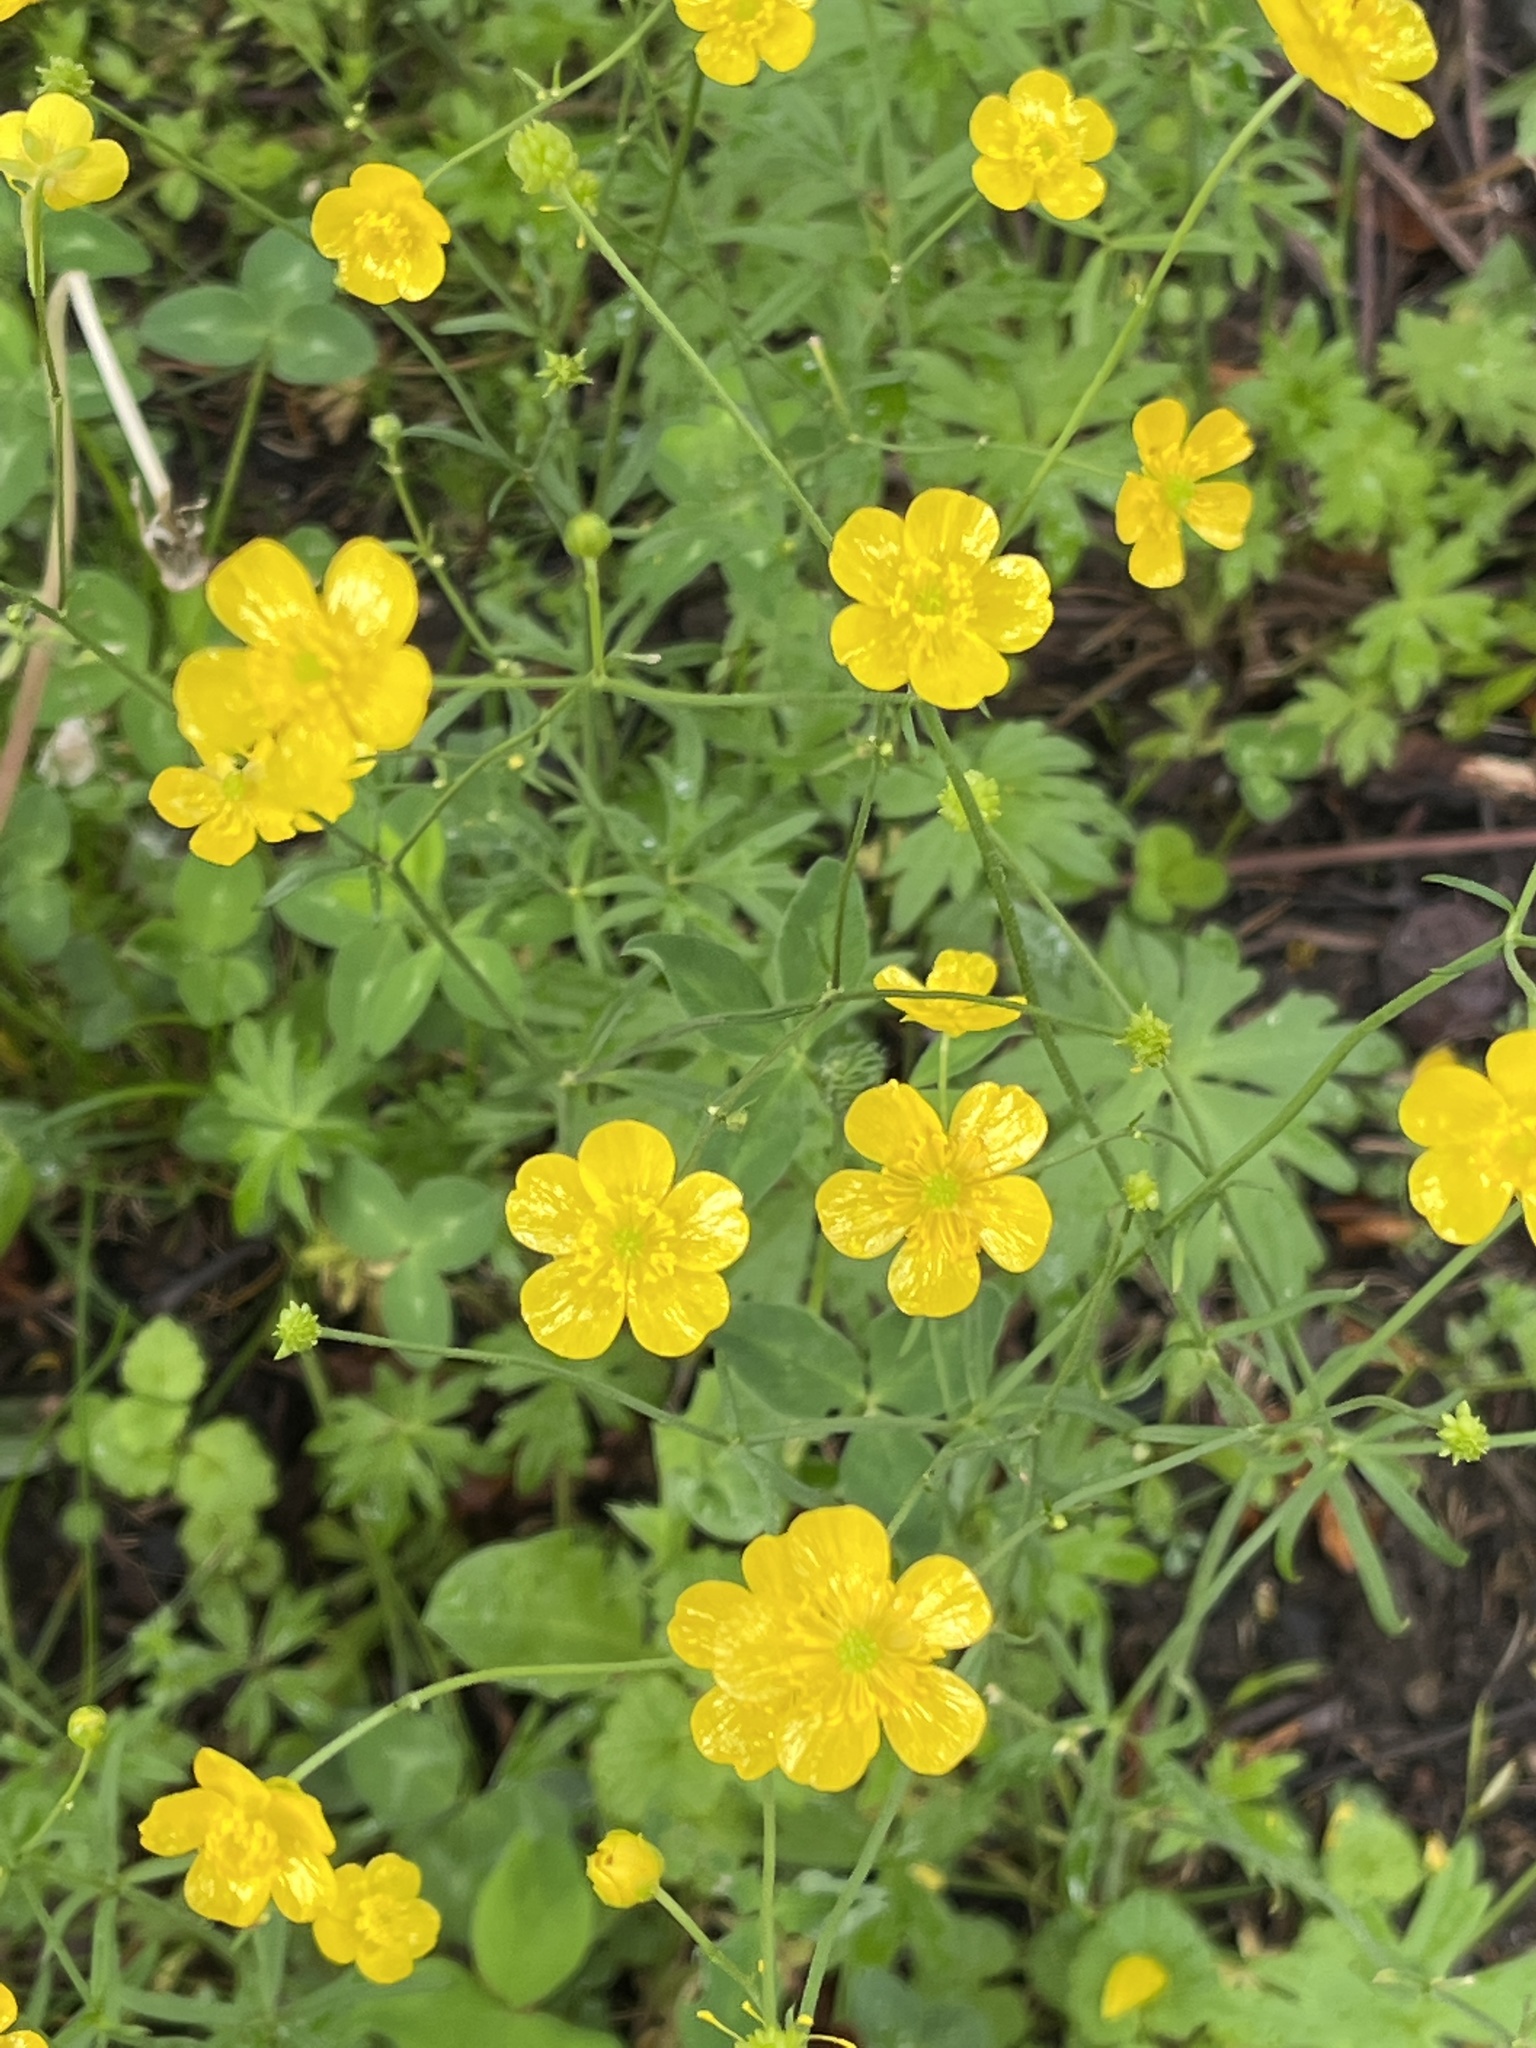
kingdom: Plantae
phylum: Tracheophyta
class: Magnoliopsida
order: Ranunculales
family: Ranunculaceae
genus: Ranunculus
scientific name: Ranunculus acris
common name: Meadow buttercup
